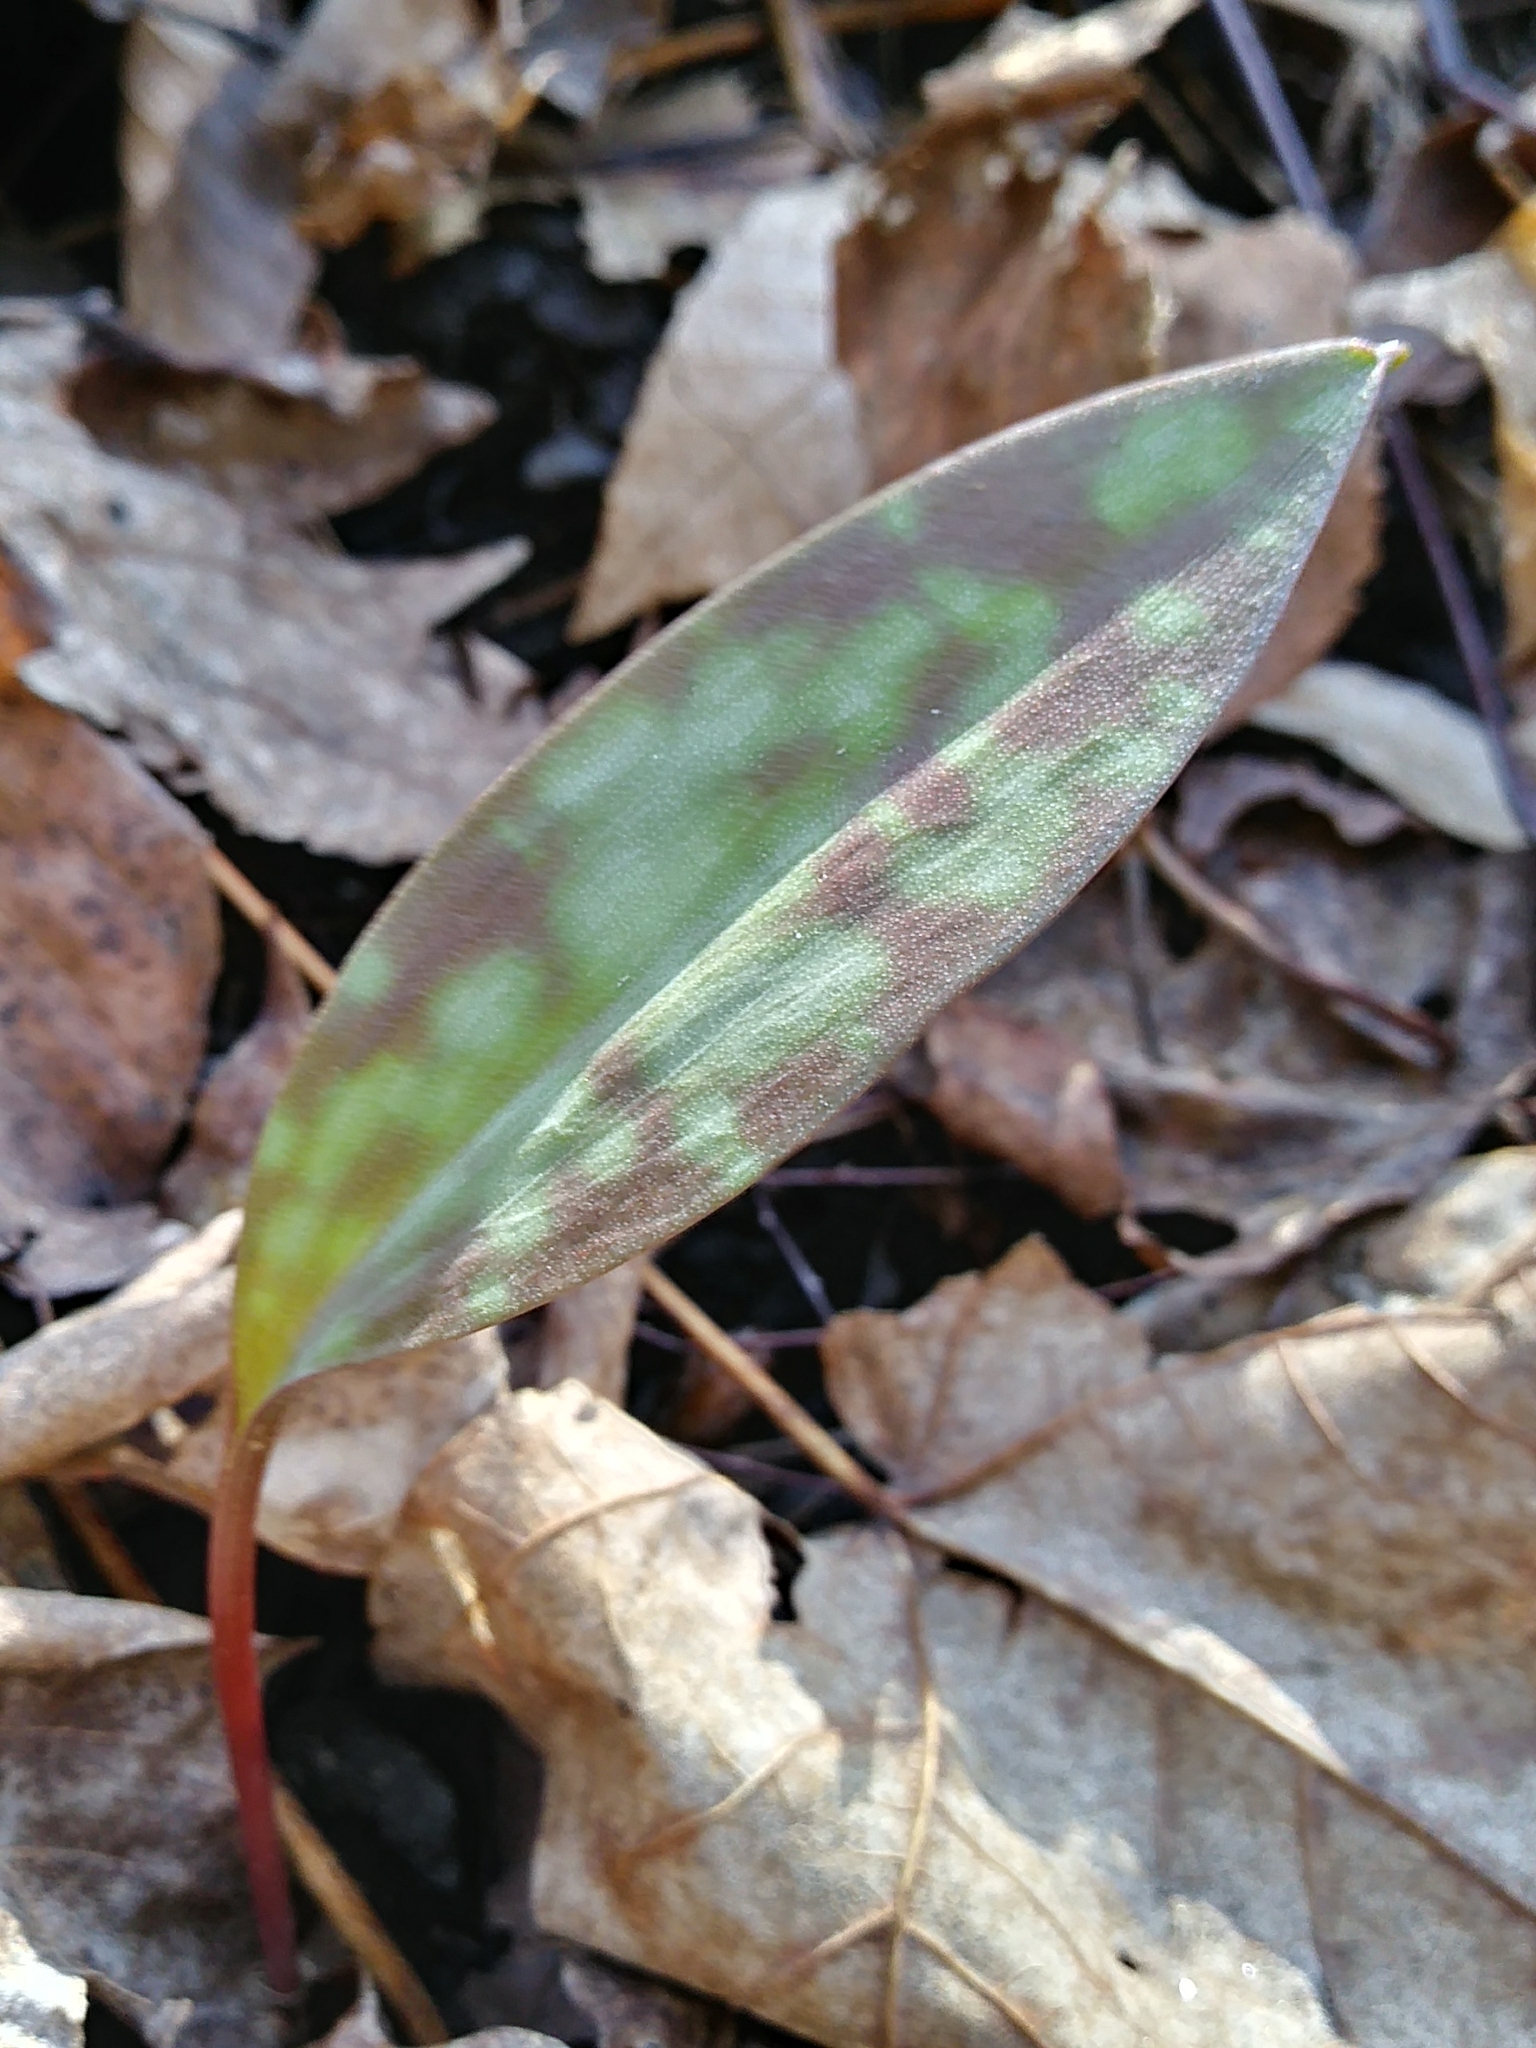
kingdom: Plantae
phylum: Tracheophyta
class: Liliopsida
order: Liliales
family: Liliaceae
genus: Erythronium
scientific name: Erythronium americanum
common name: Yellow adder's-tongue
